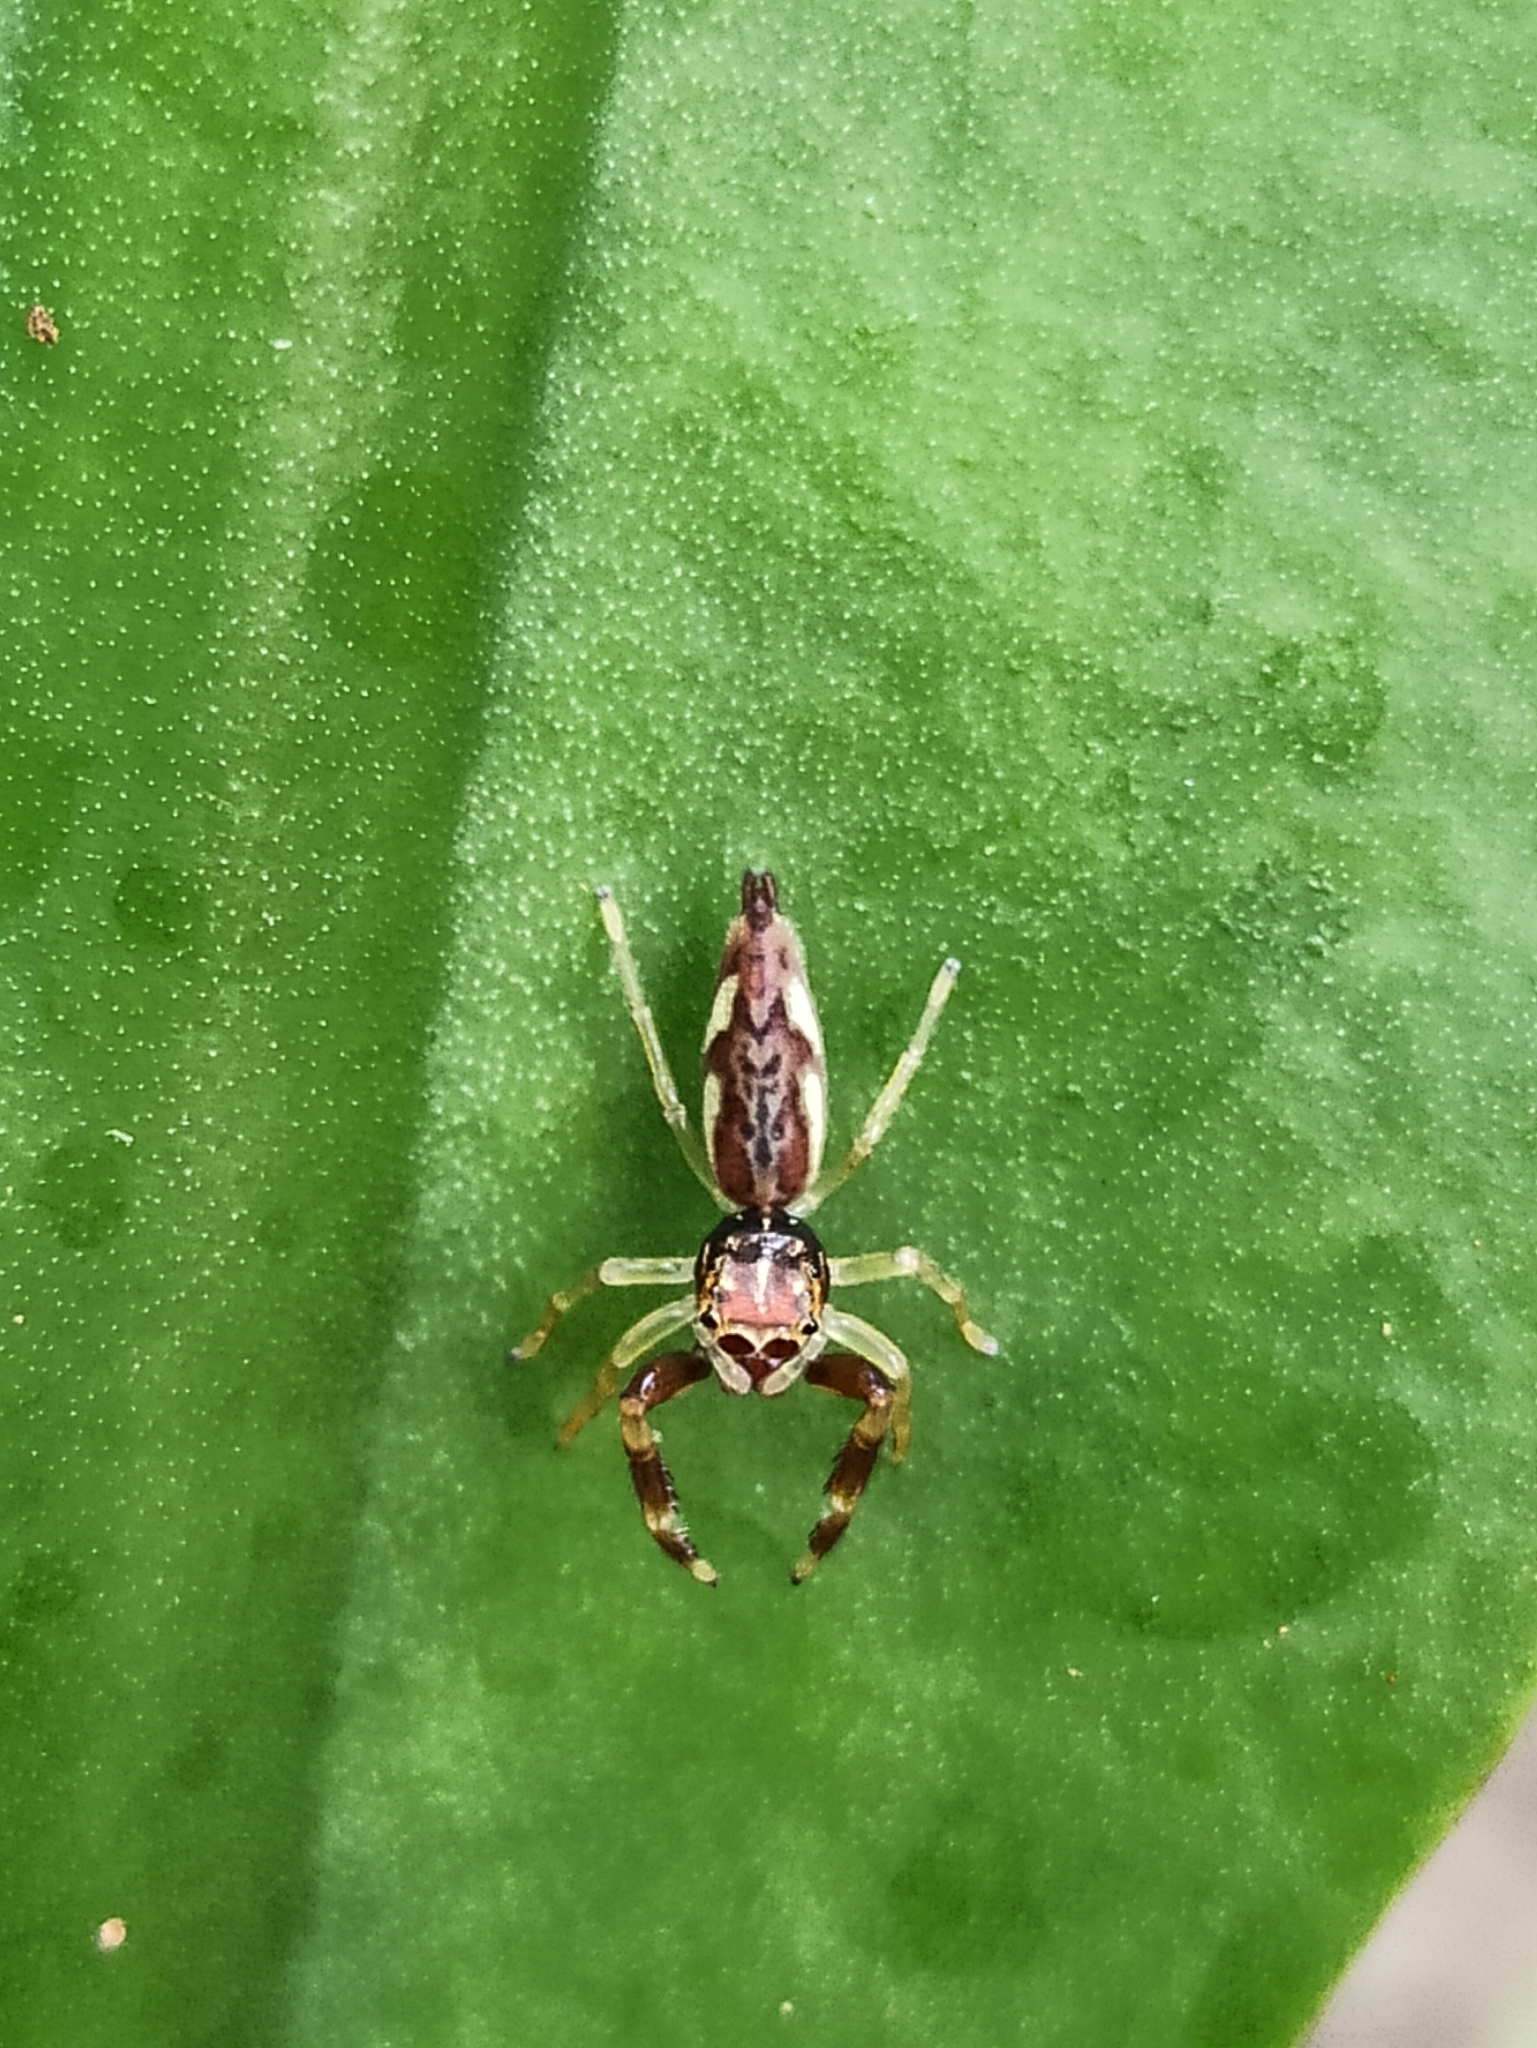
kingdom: Animalia
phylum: Arthropoda
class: Arachnida
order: Araneae
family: Salticidae
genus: Indopadilla
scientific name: Indopadilla insularis
